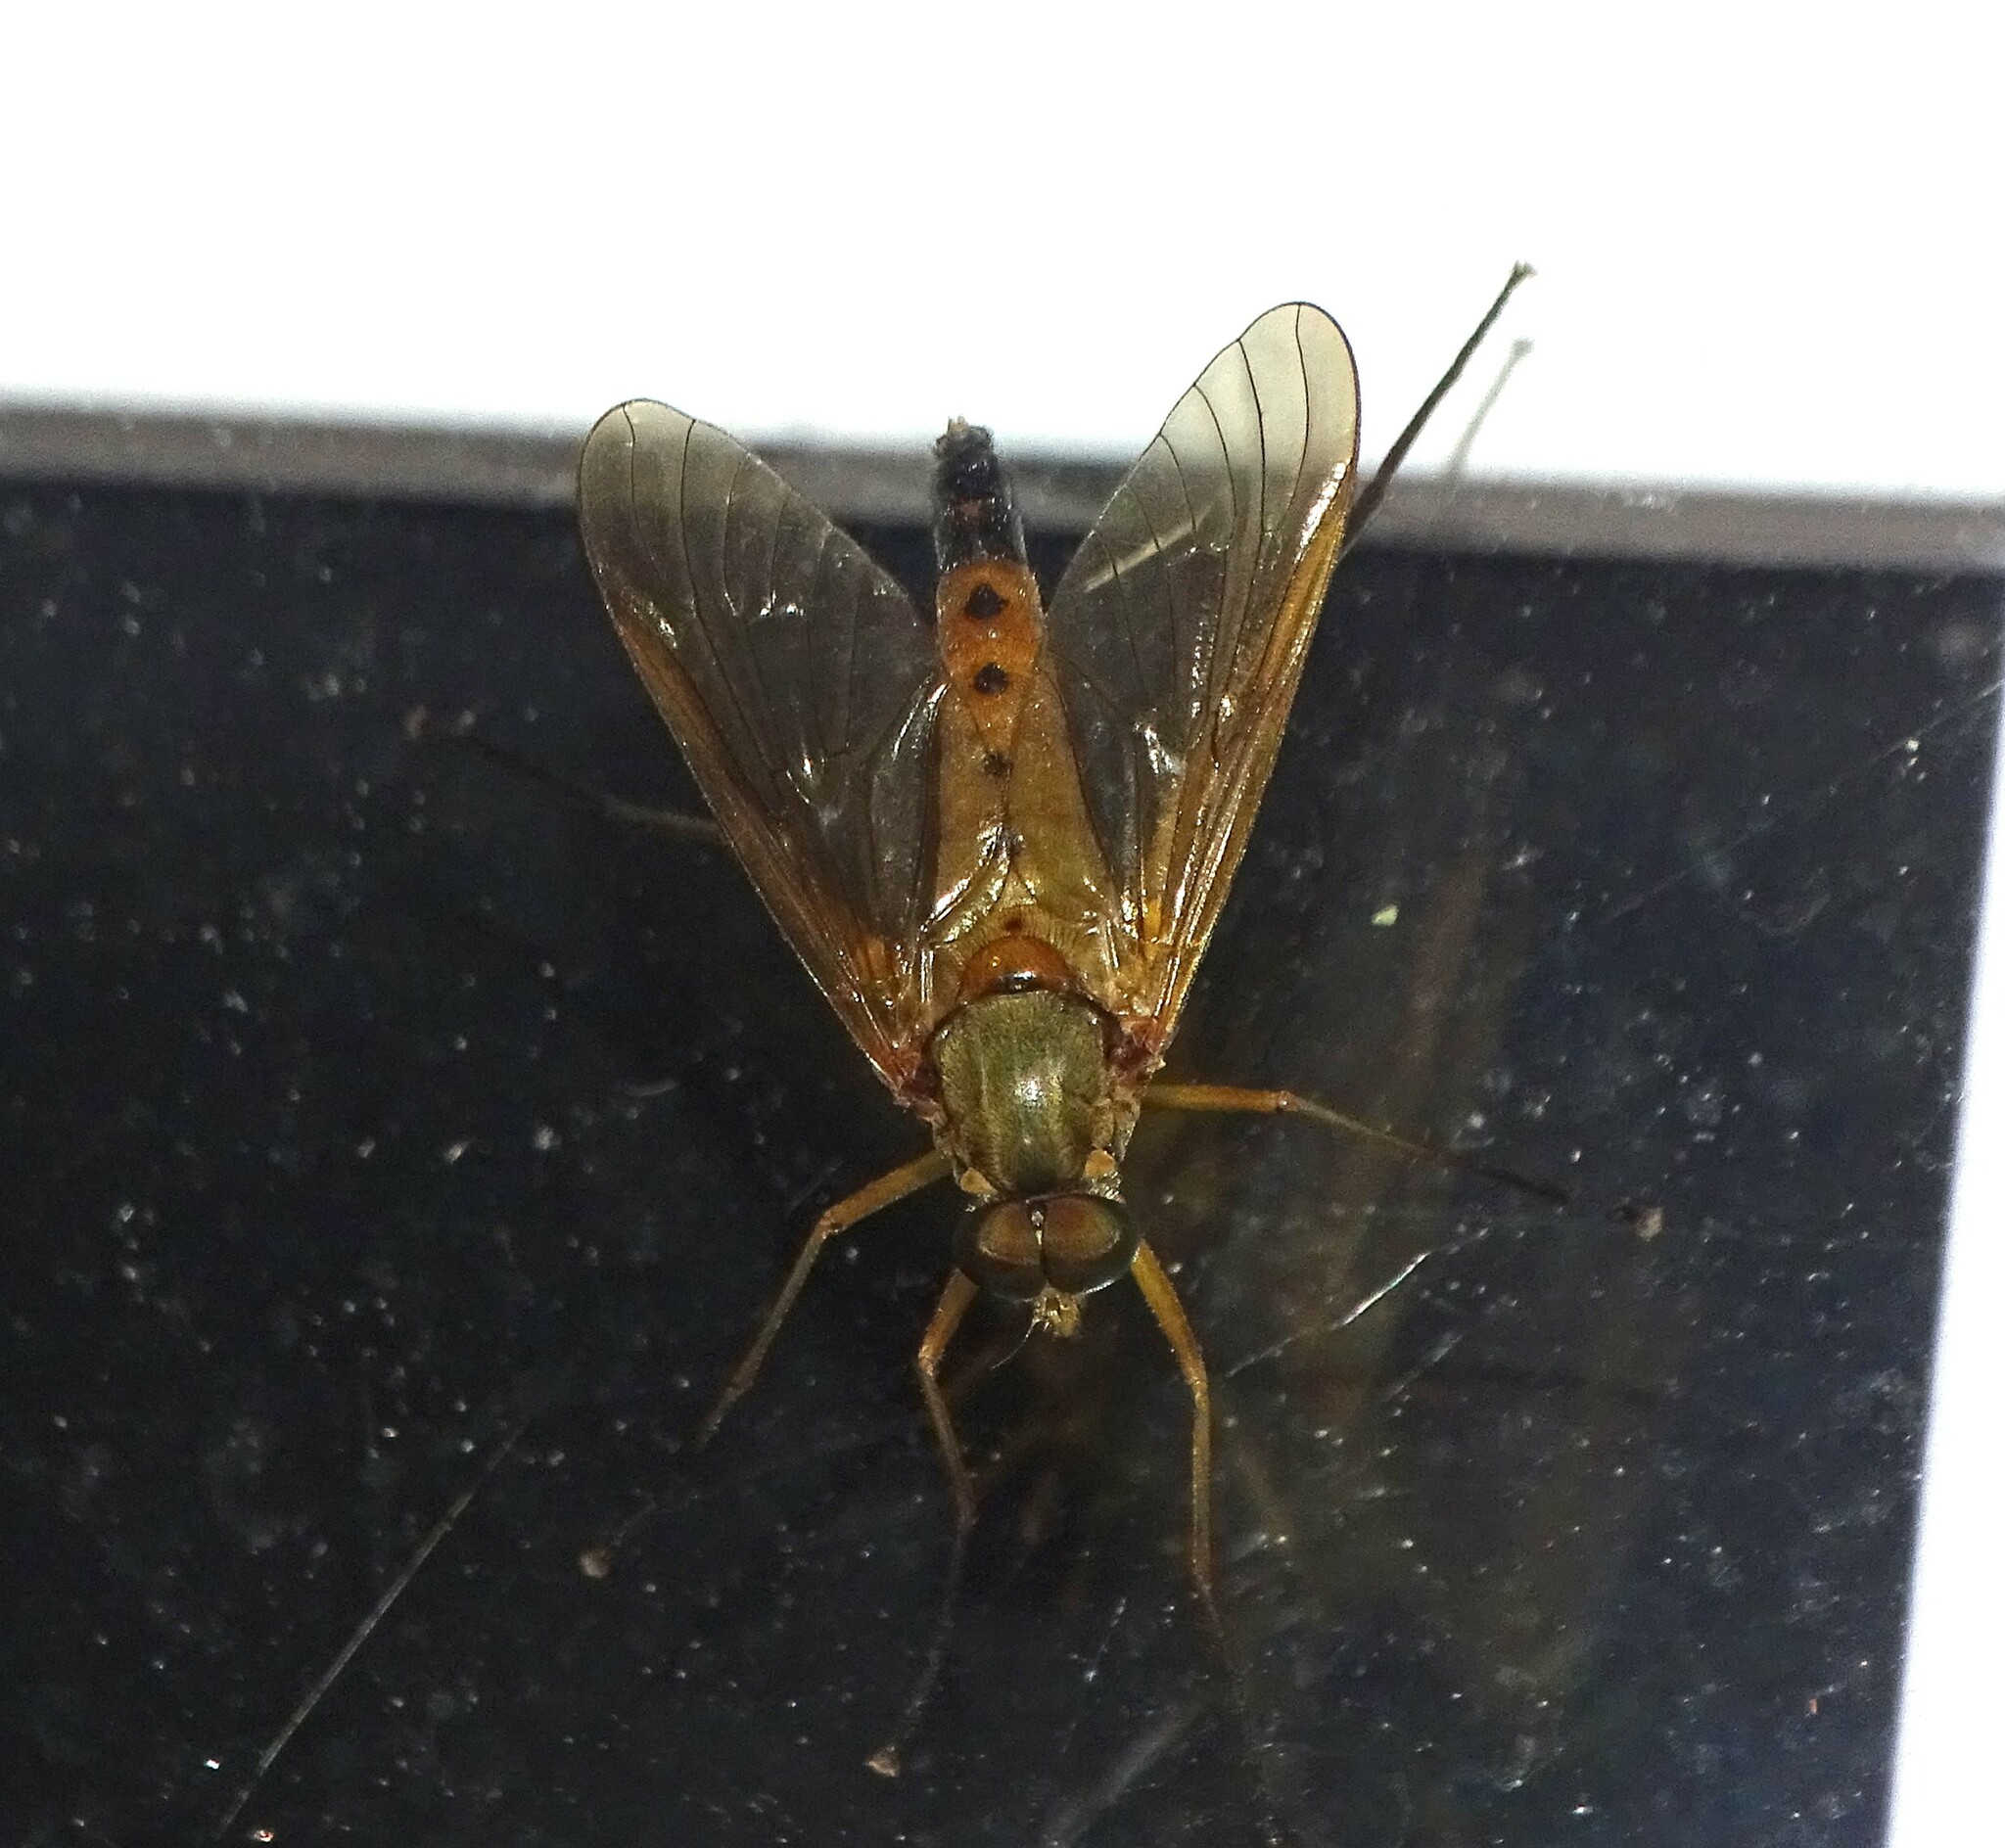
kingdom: Animalia
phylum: Arthropoda
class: Insecta
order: Diptera
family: Rhagionidae
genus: Rhagio
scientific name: Rhagio tringaria
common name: Marsh snipefly
